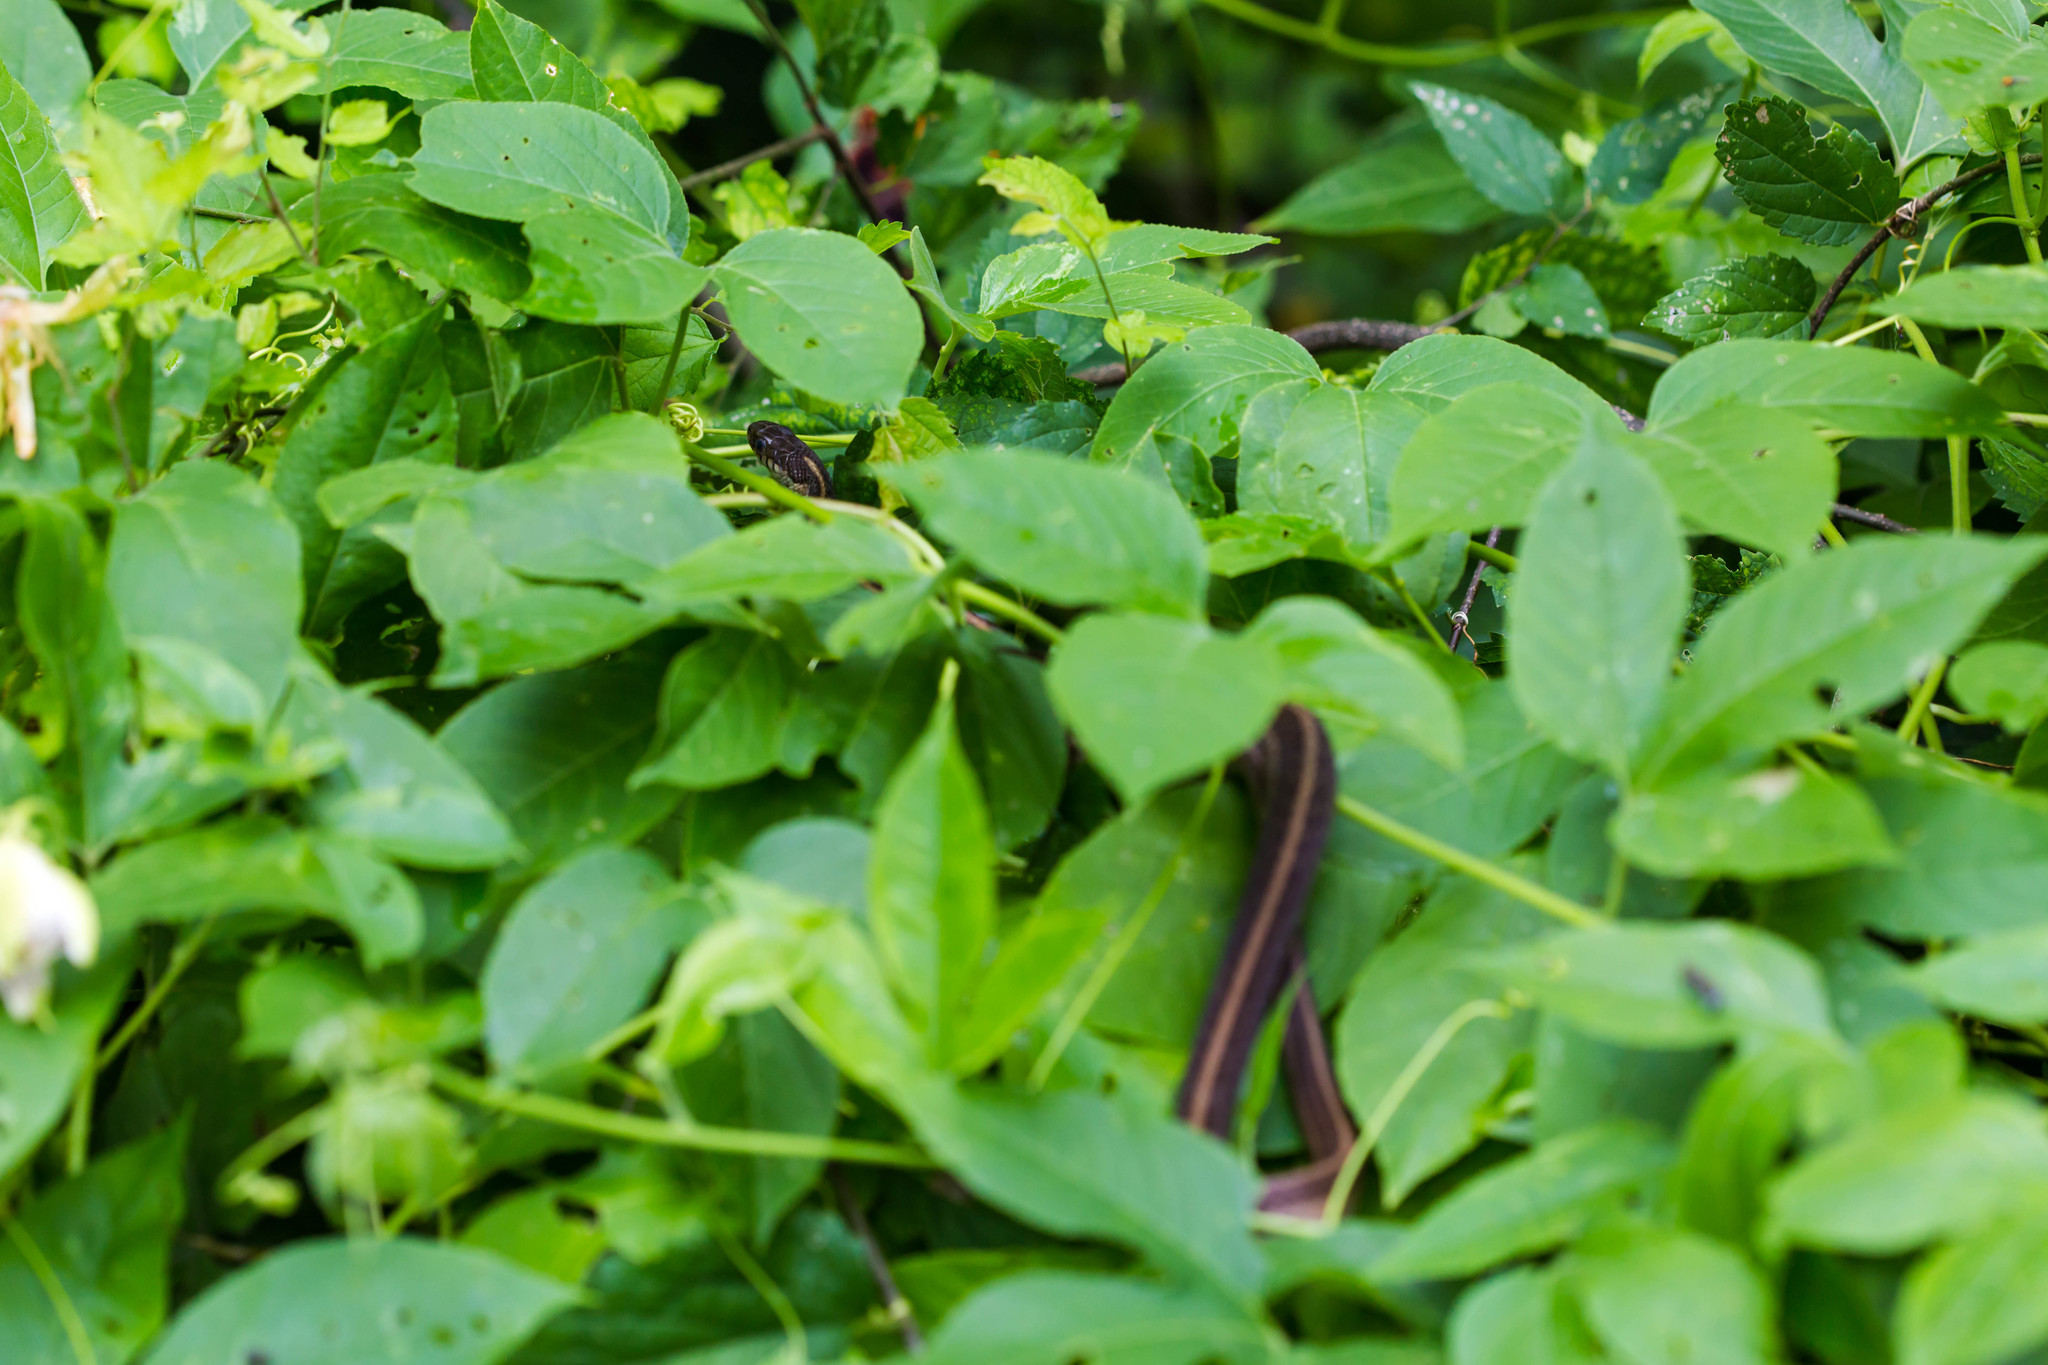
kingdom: Animalia
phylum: Chordata
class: Squamata
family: Colubridae
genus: Thamnophis
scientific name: Thamnophis sirtalis
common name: Common garter snake
